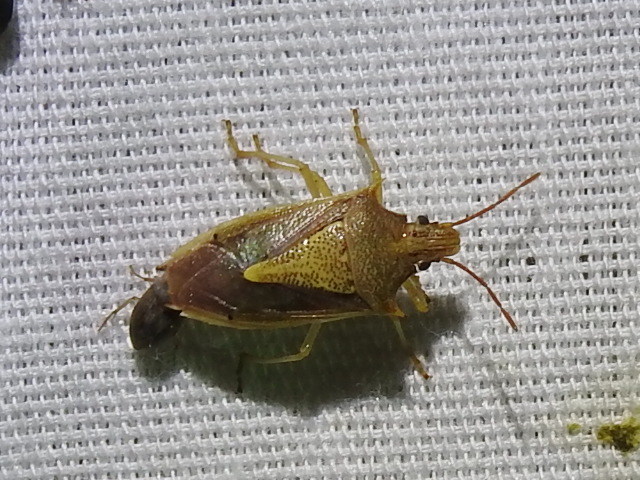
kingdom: Animalia
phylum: Arthropoda
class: Insecta
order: Hemiptera
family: Pentatomidae
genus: Oebalus
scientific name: Oebalus pugnax
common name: Rice stink bug
